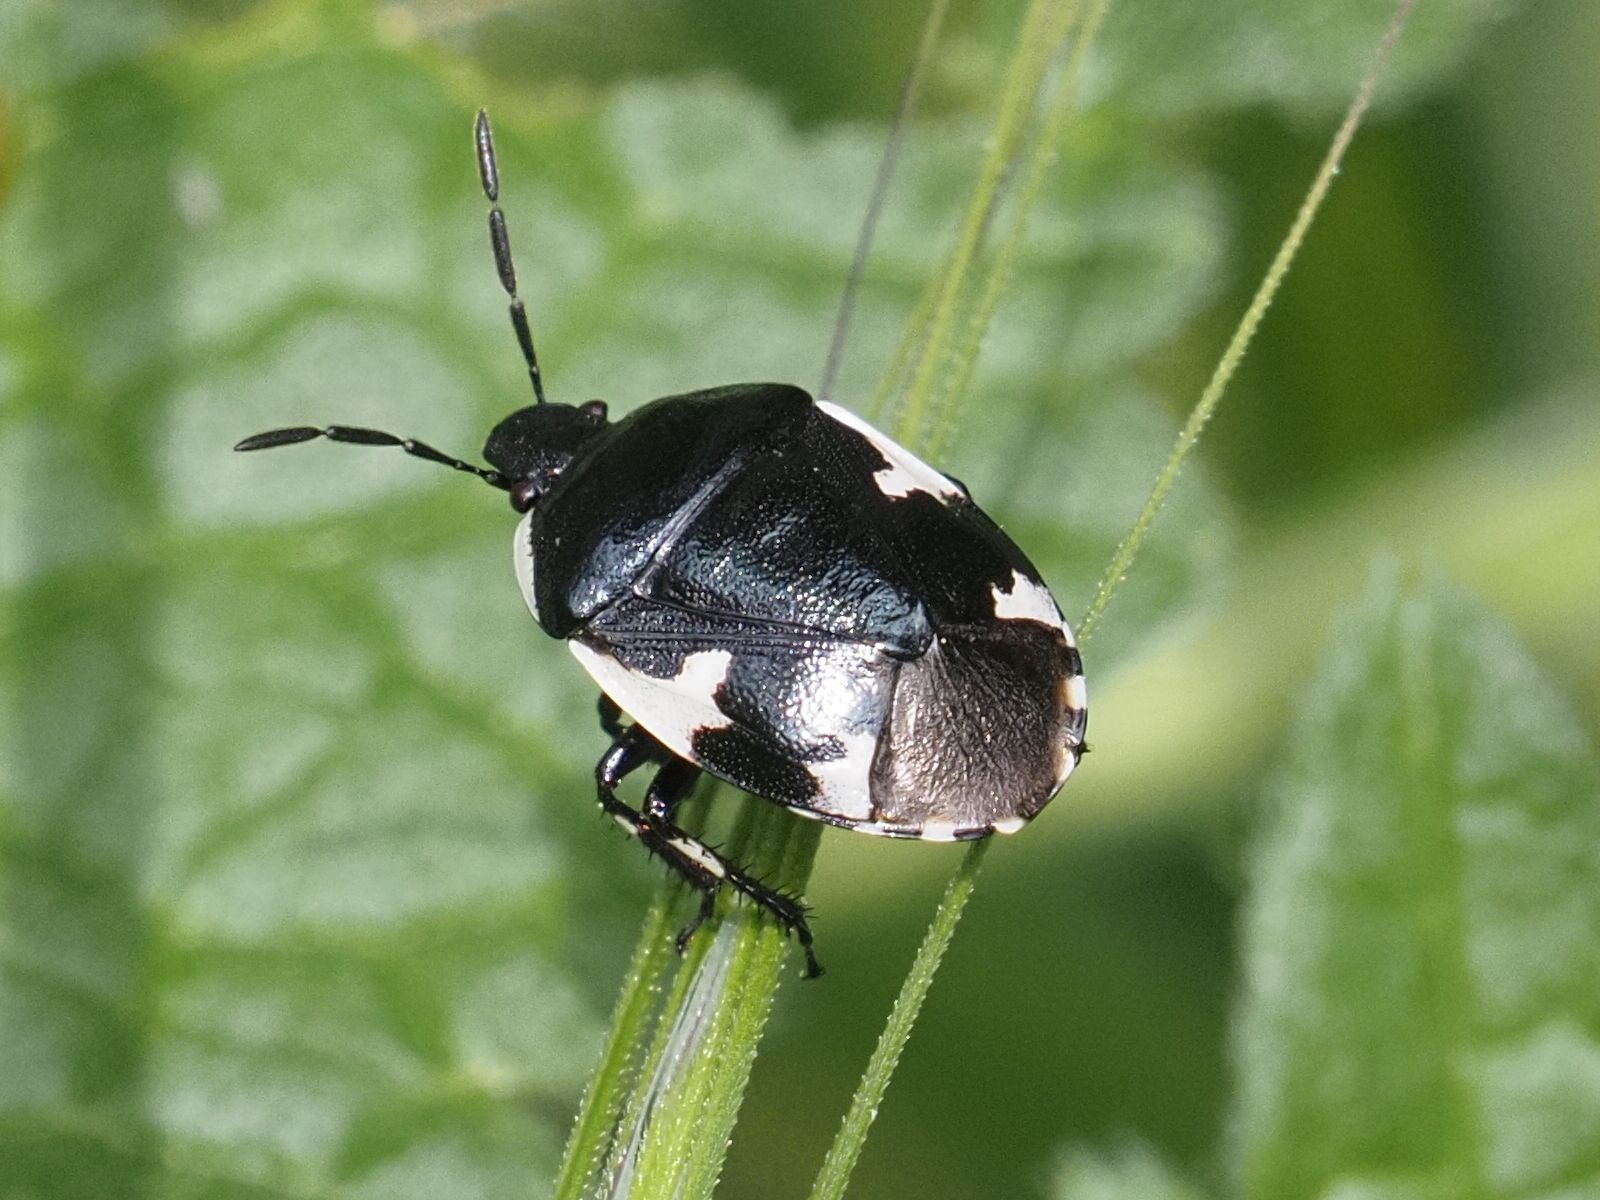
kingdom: Animalia
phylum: Arthropoda
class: Insecta
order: Hemiptera
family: Cydnidae
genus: Tritomegas
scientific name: Tritomegas sexmaculatus
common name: Rambur's pied shieldbug
